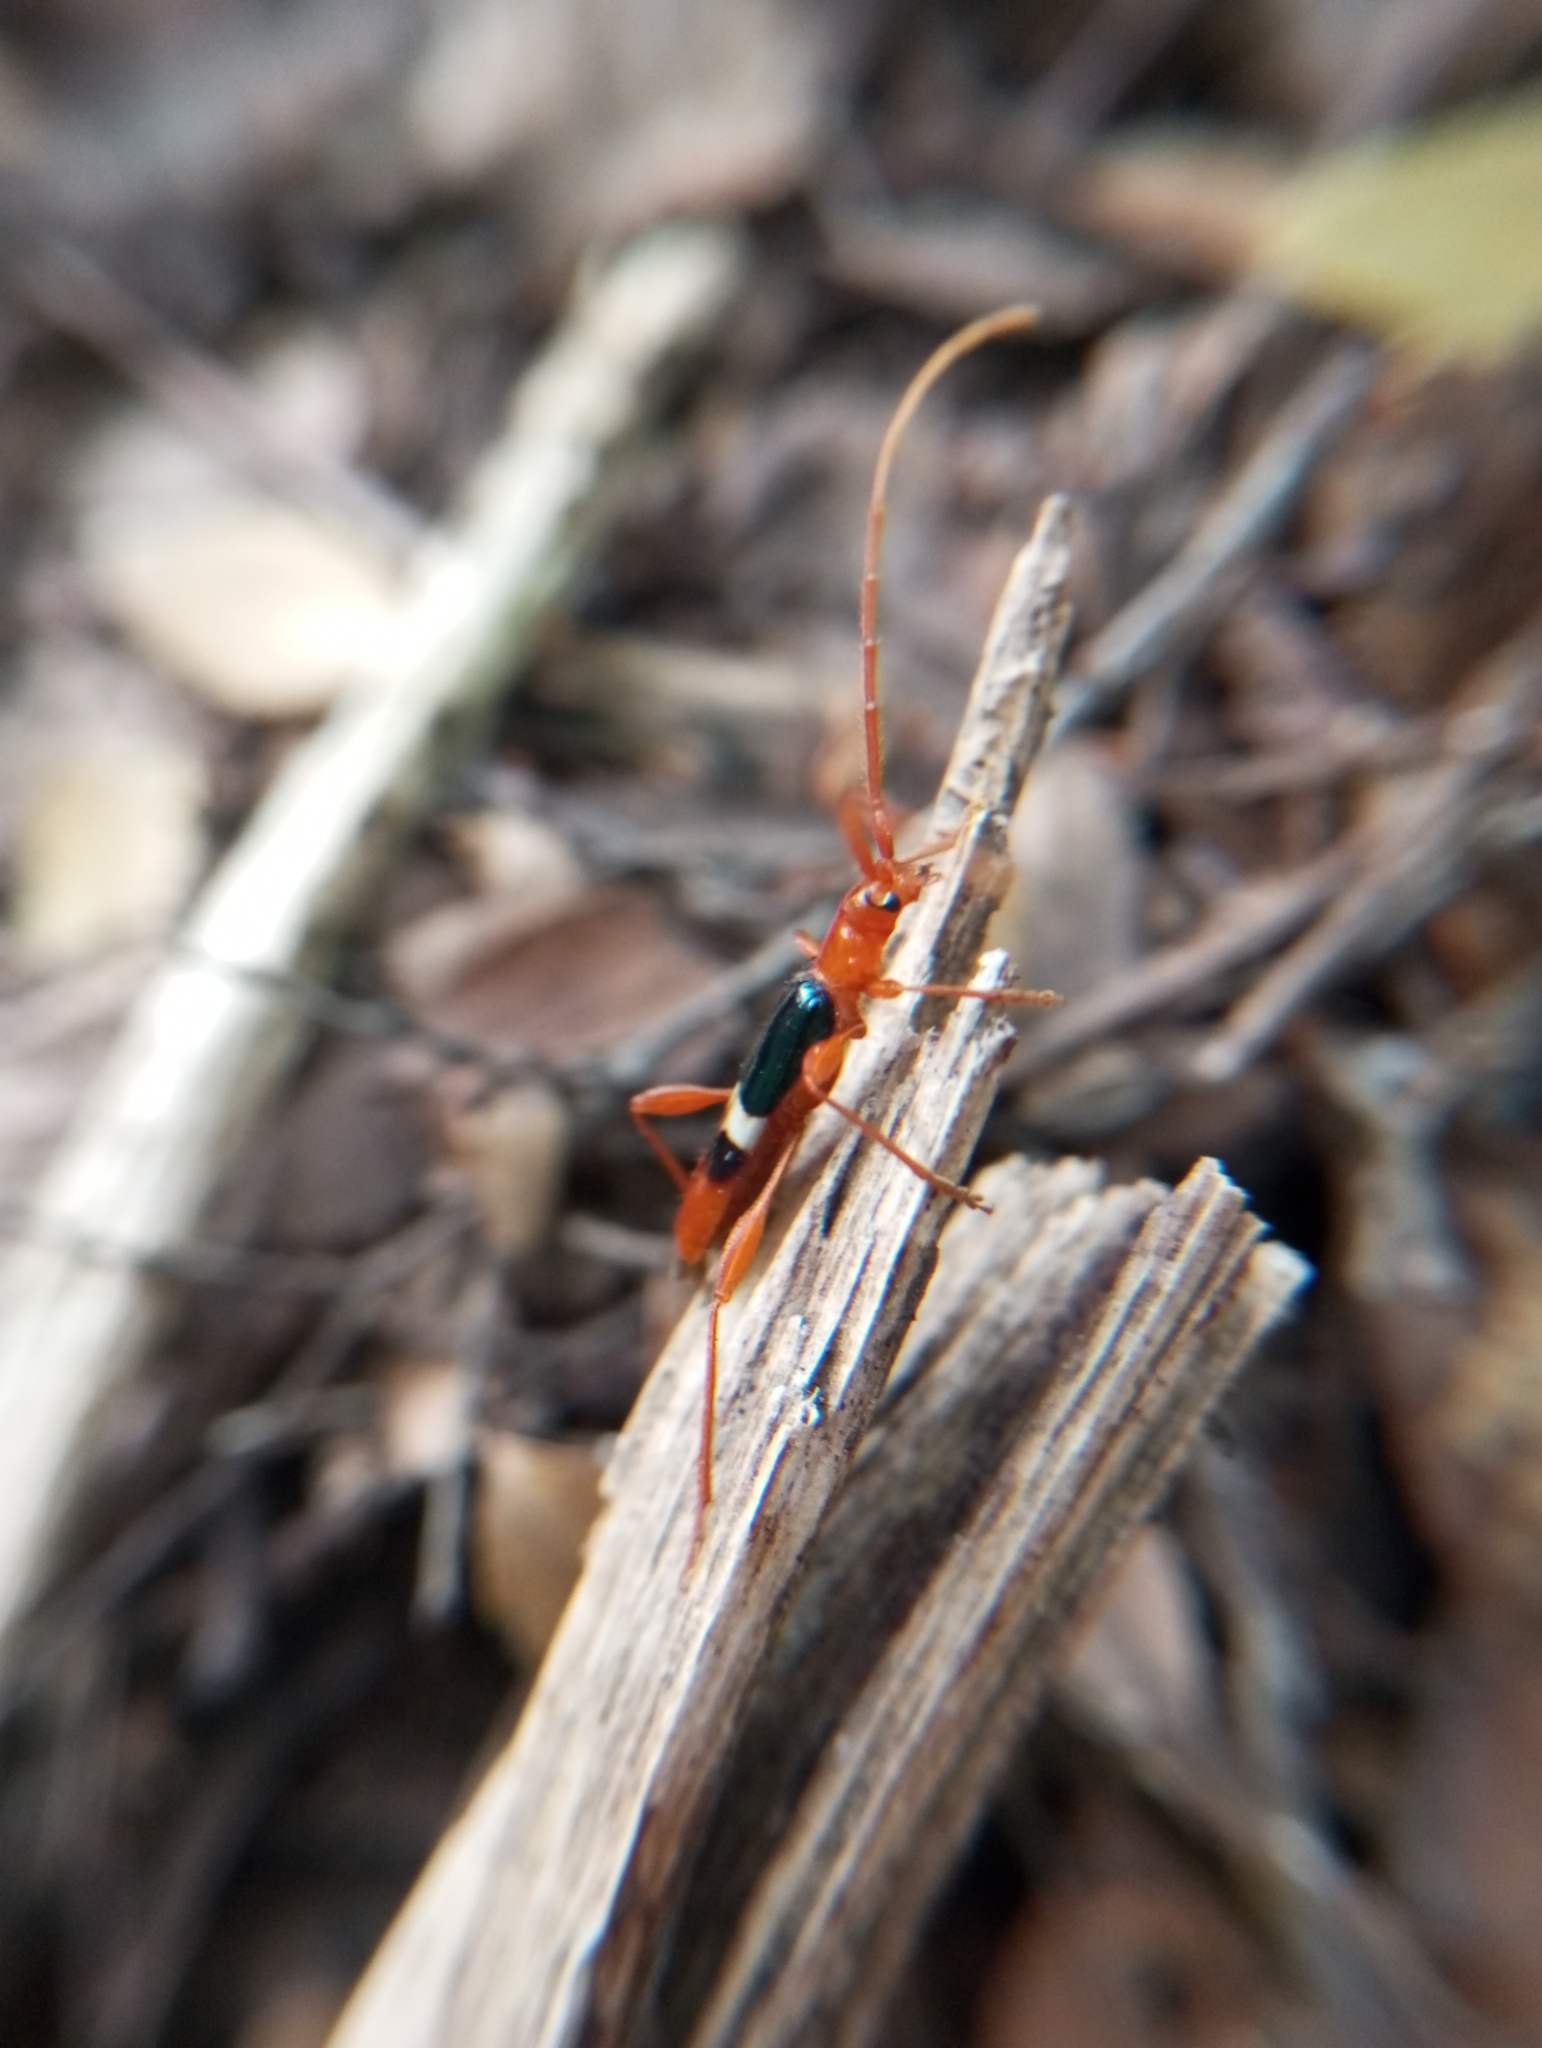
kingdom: Animalia
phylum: Arthropoda
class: Insecta
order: Coleoptera
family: Cerambycidae
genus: Chenoderus
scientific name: Chenoderus bicolor
